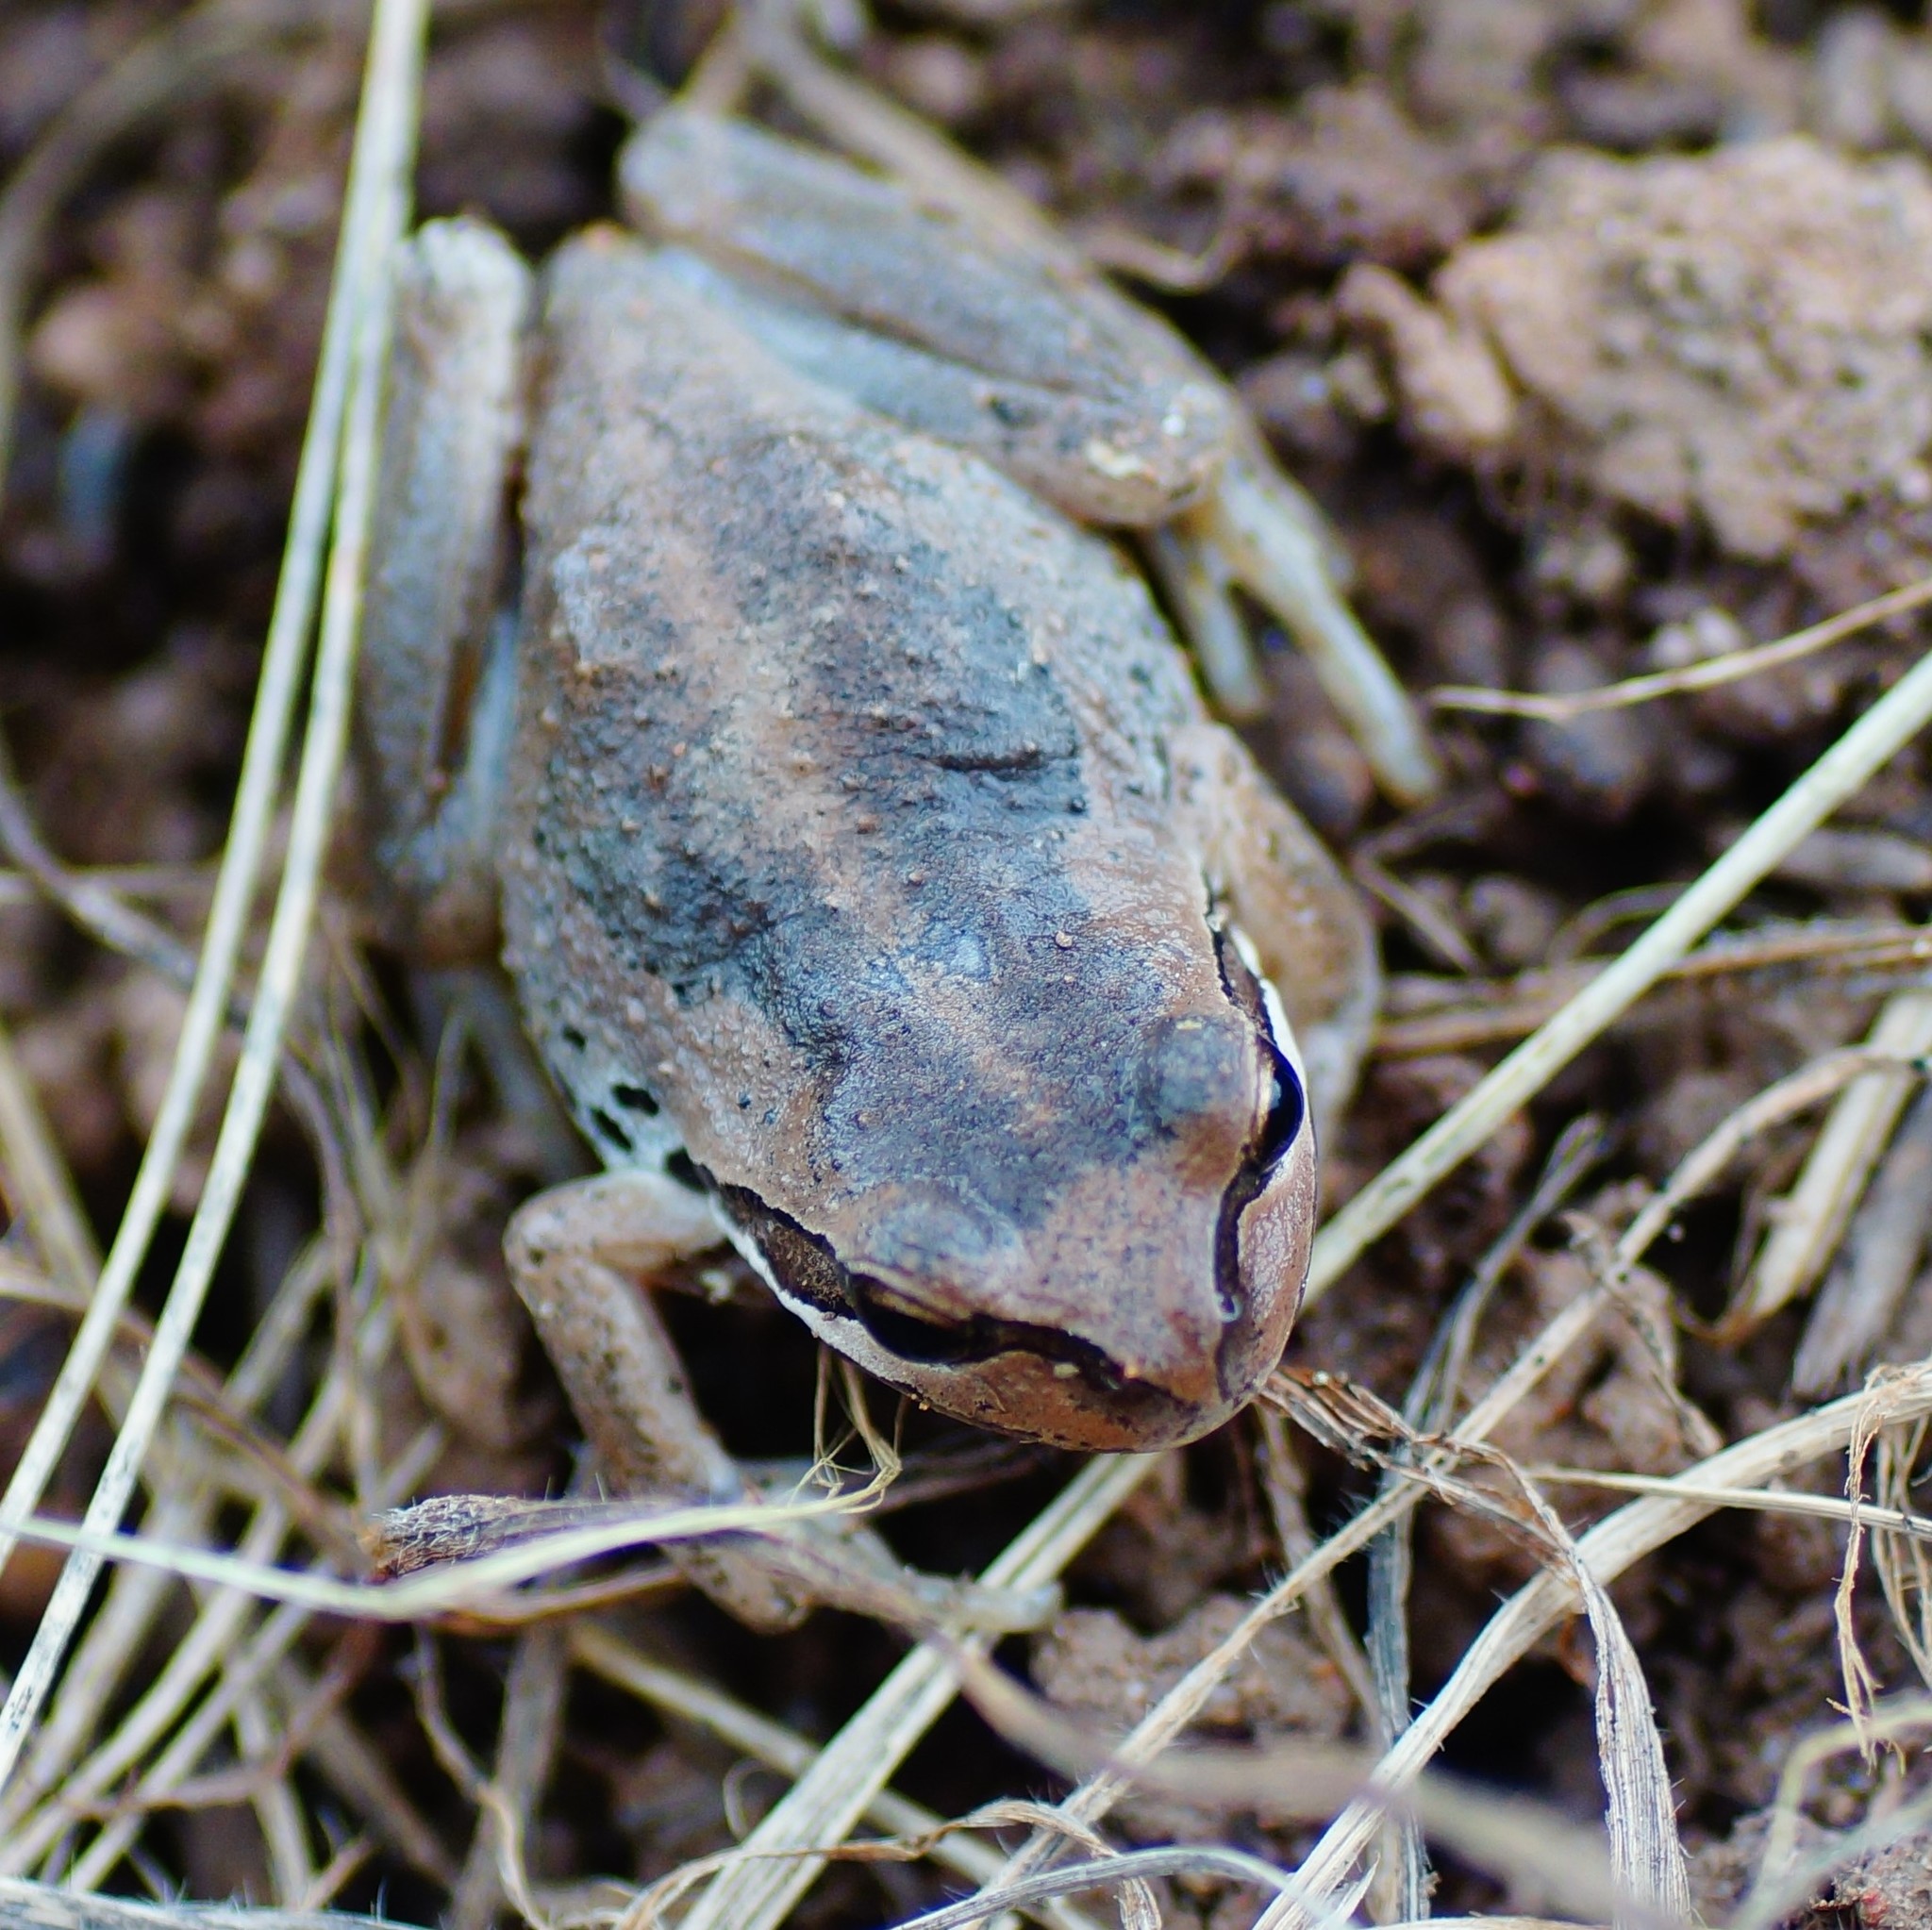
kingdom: Animalia
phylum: Chordata
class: Amphibia
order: Anura
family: Pelodryadidae
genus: Litoria
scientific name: Litoria ewingii
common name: Southern brown tree frog
